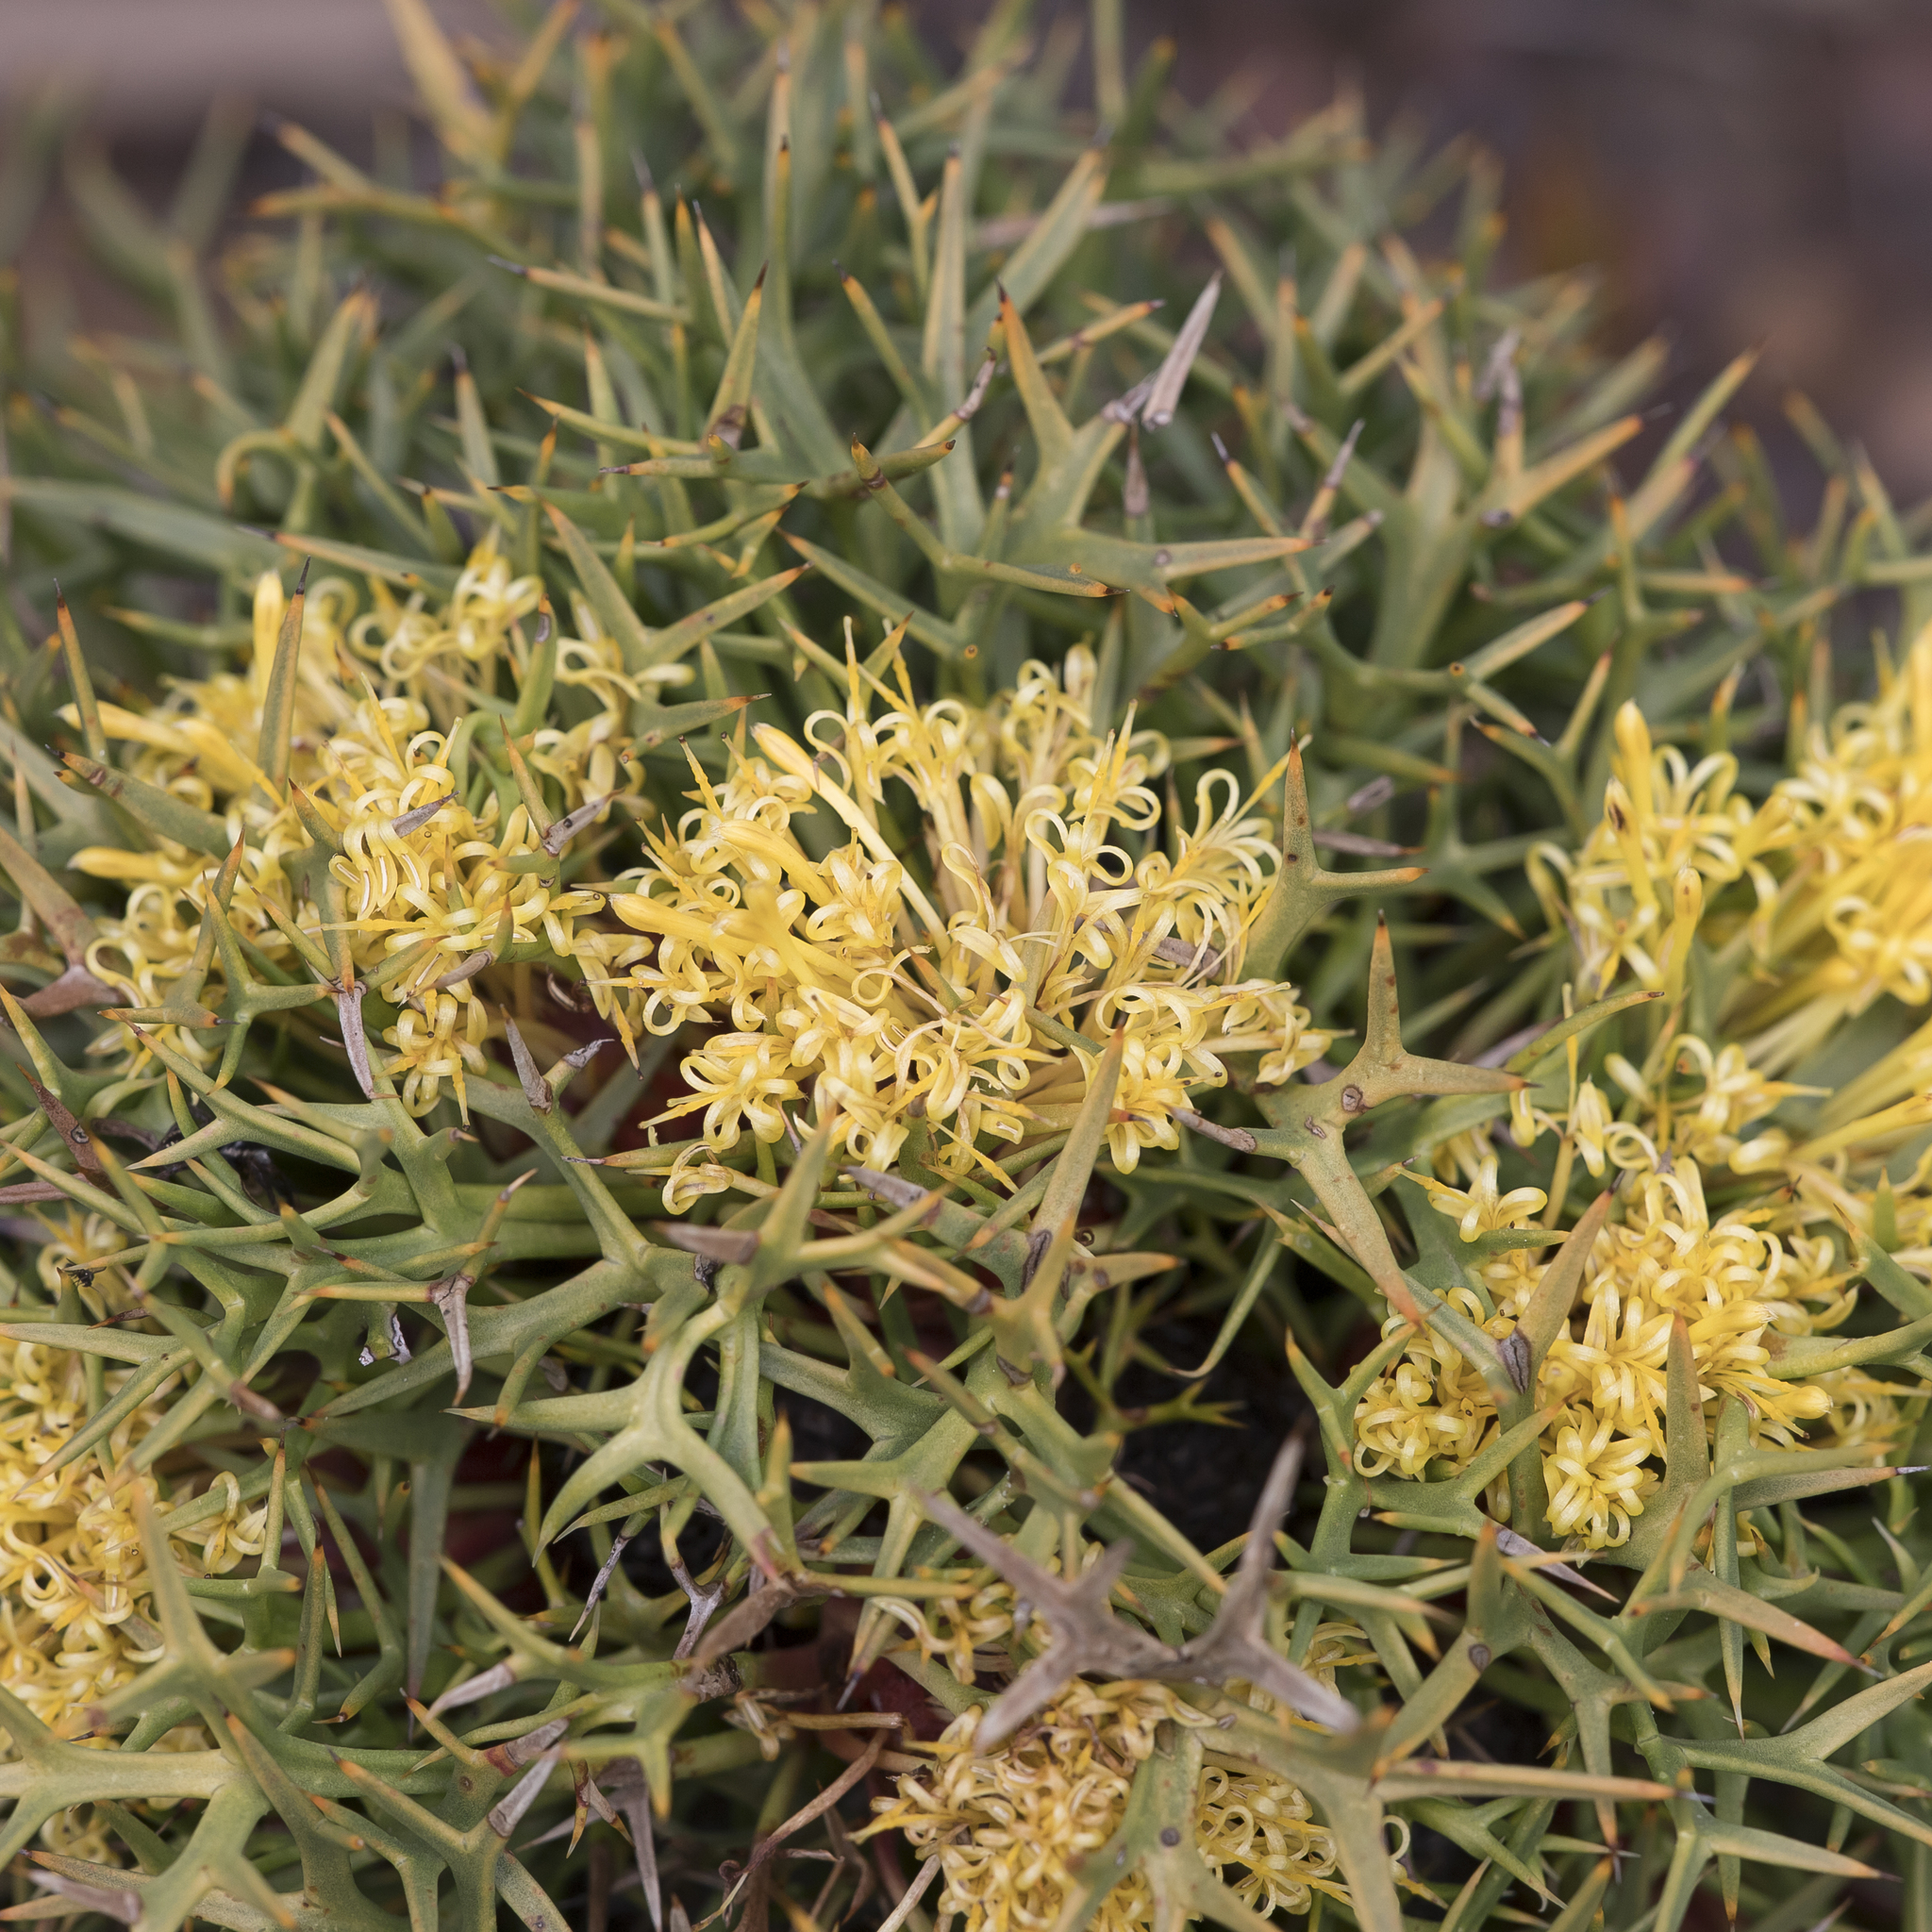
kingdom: Plantae
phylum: Tracheophyta
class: Magnoliopsida
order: Proteales
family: Proteaceae
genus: Isopogon
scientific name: Isopogon ceratophyllus
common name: Horny cone-bush
